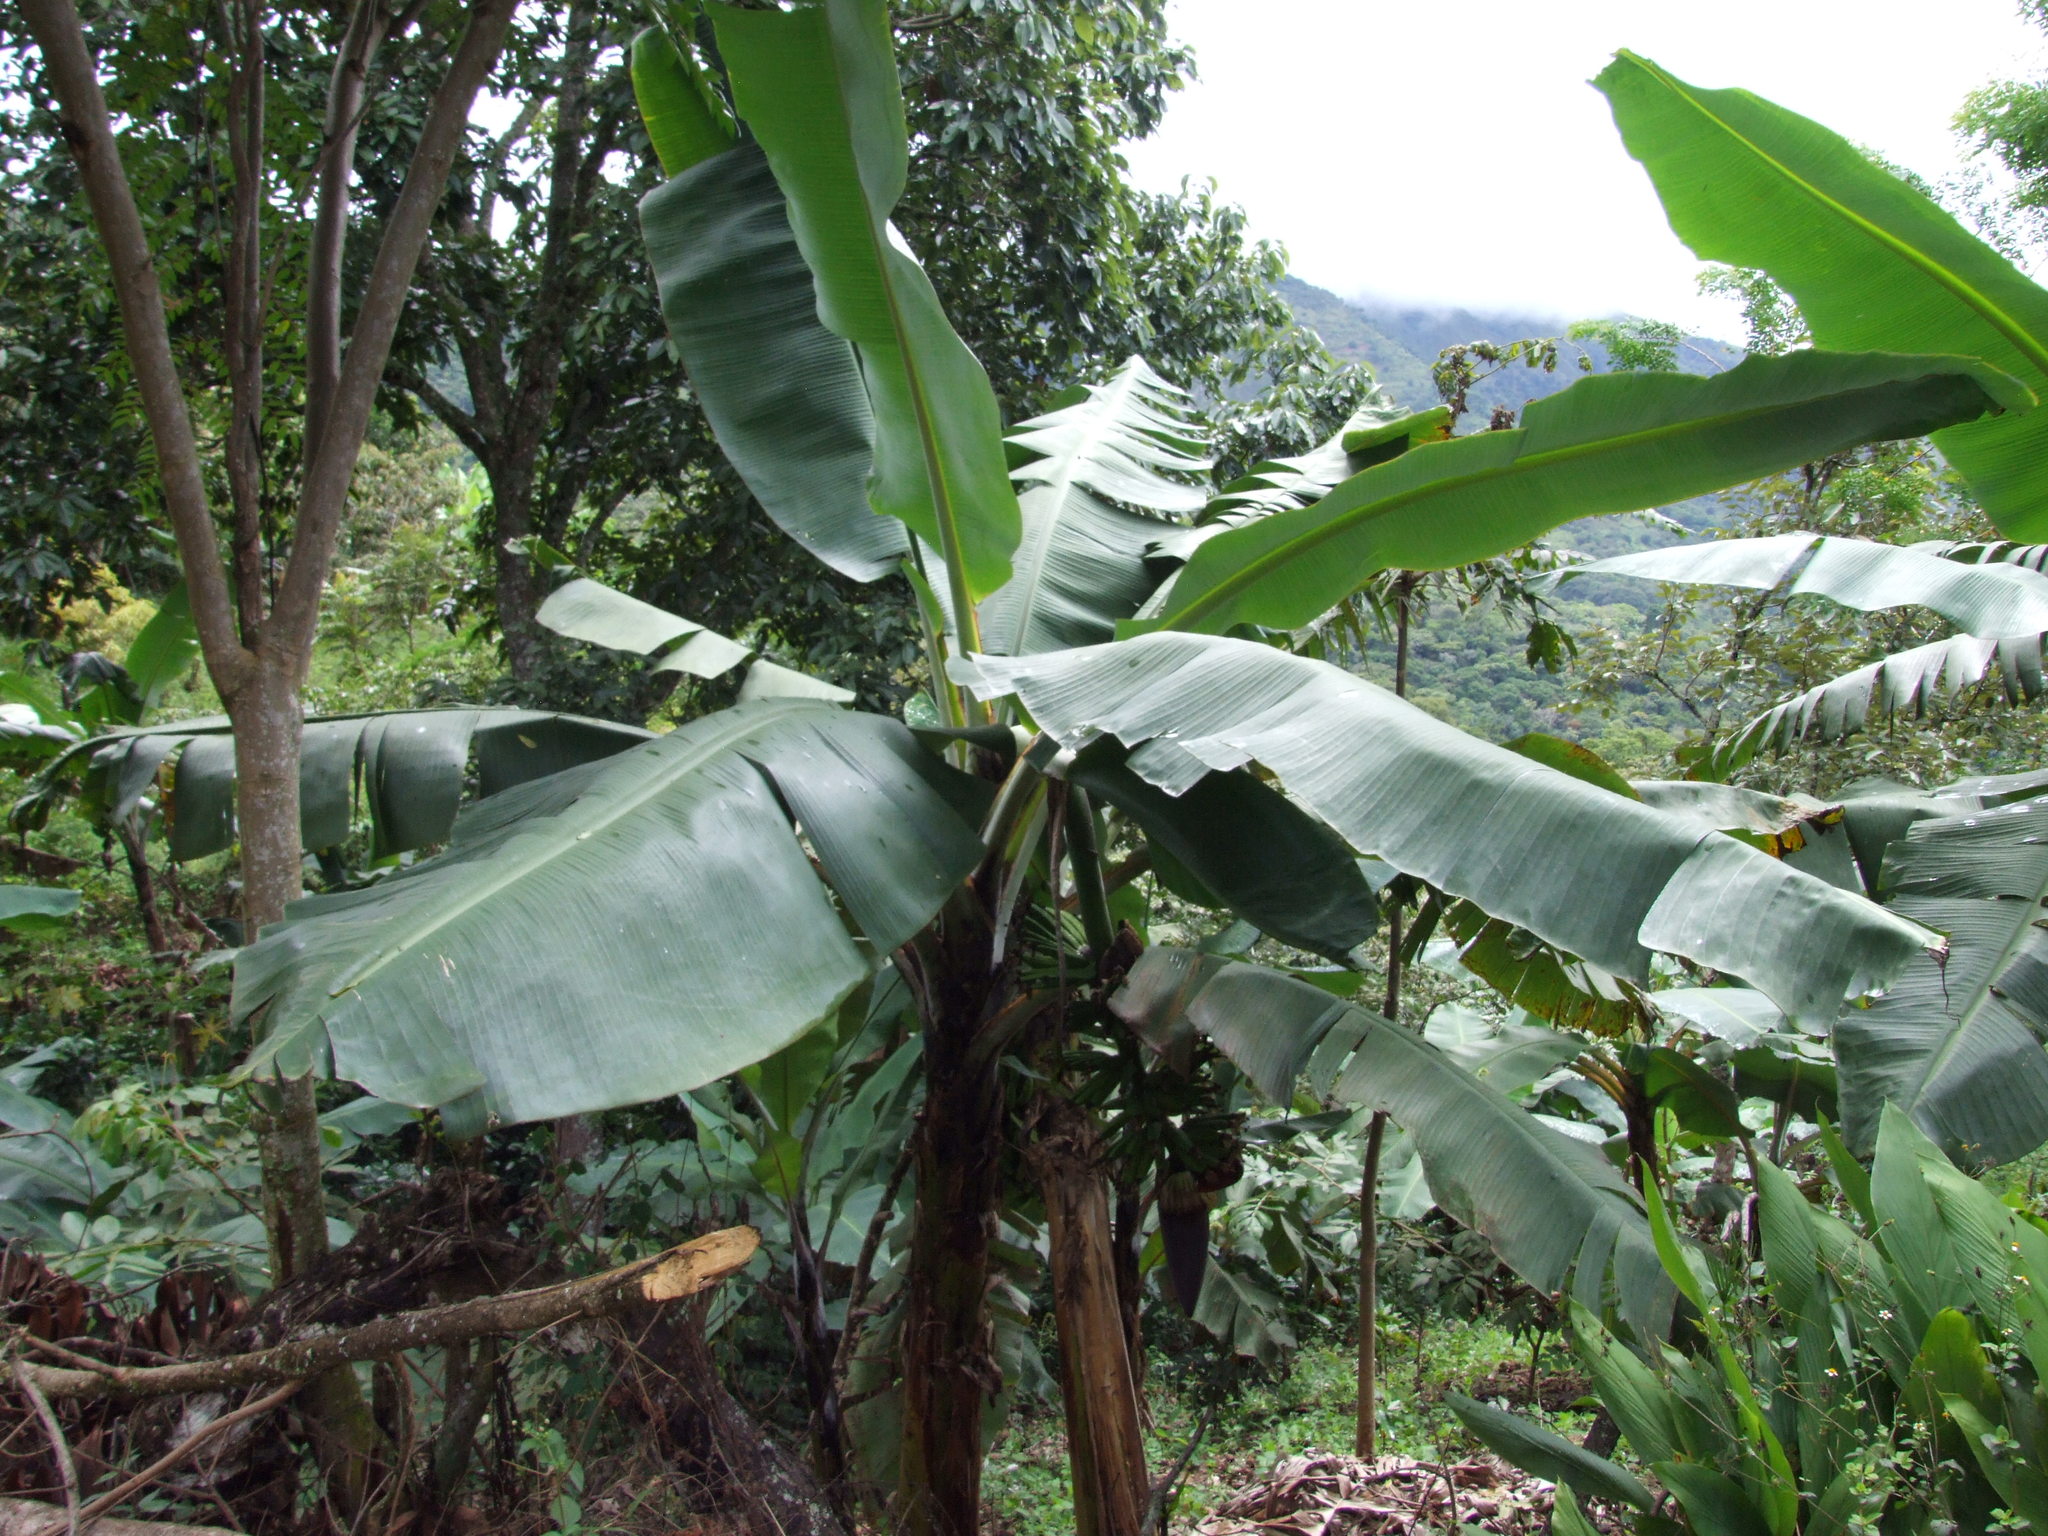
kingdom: Plantae
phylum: Tracheophyta
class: Liliopsida
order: Zingiberales
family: Musaceae
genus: Musa
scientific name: Musa acuminata
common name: Edible banana
